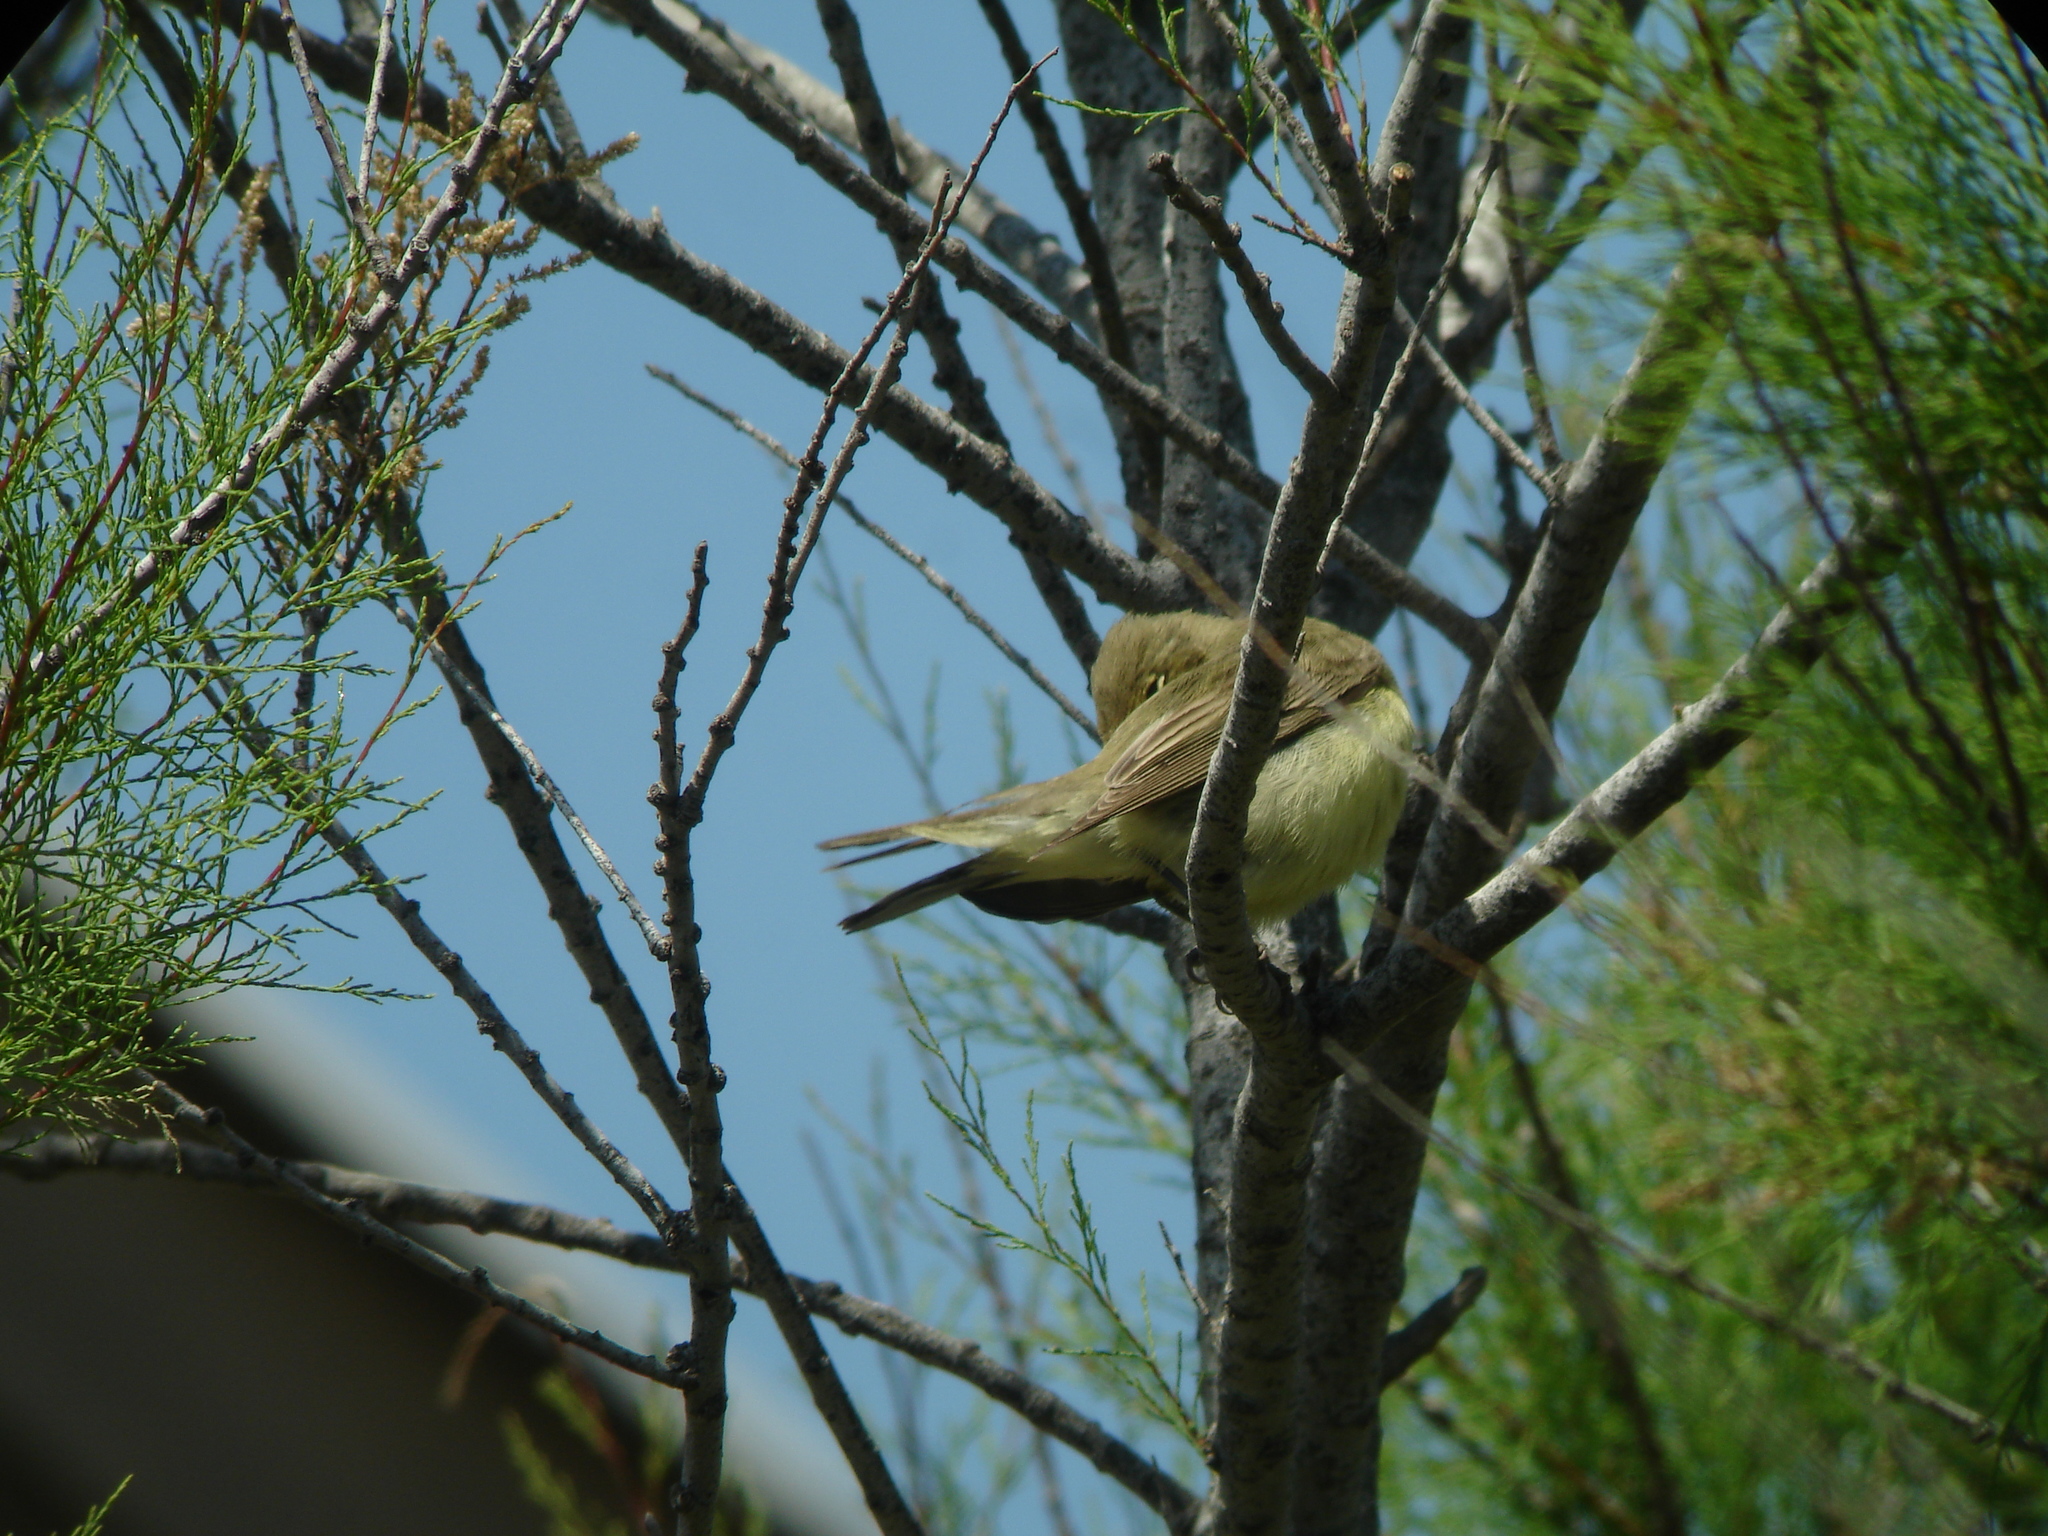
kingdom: Animalia
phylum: Chordata
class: Aves
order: Passeriformes
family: Acrocephalidae
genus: Hippolais
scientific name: Hippolais icterina
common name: Icterine warbler
